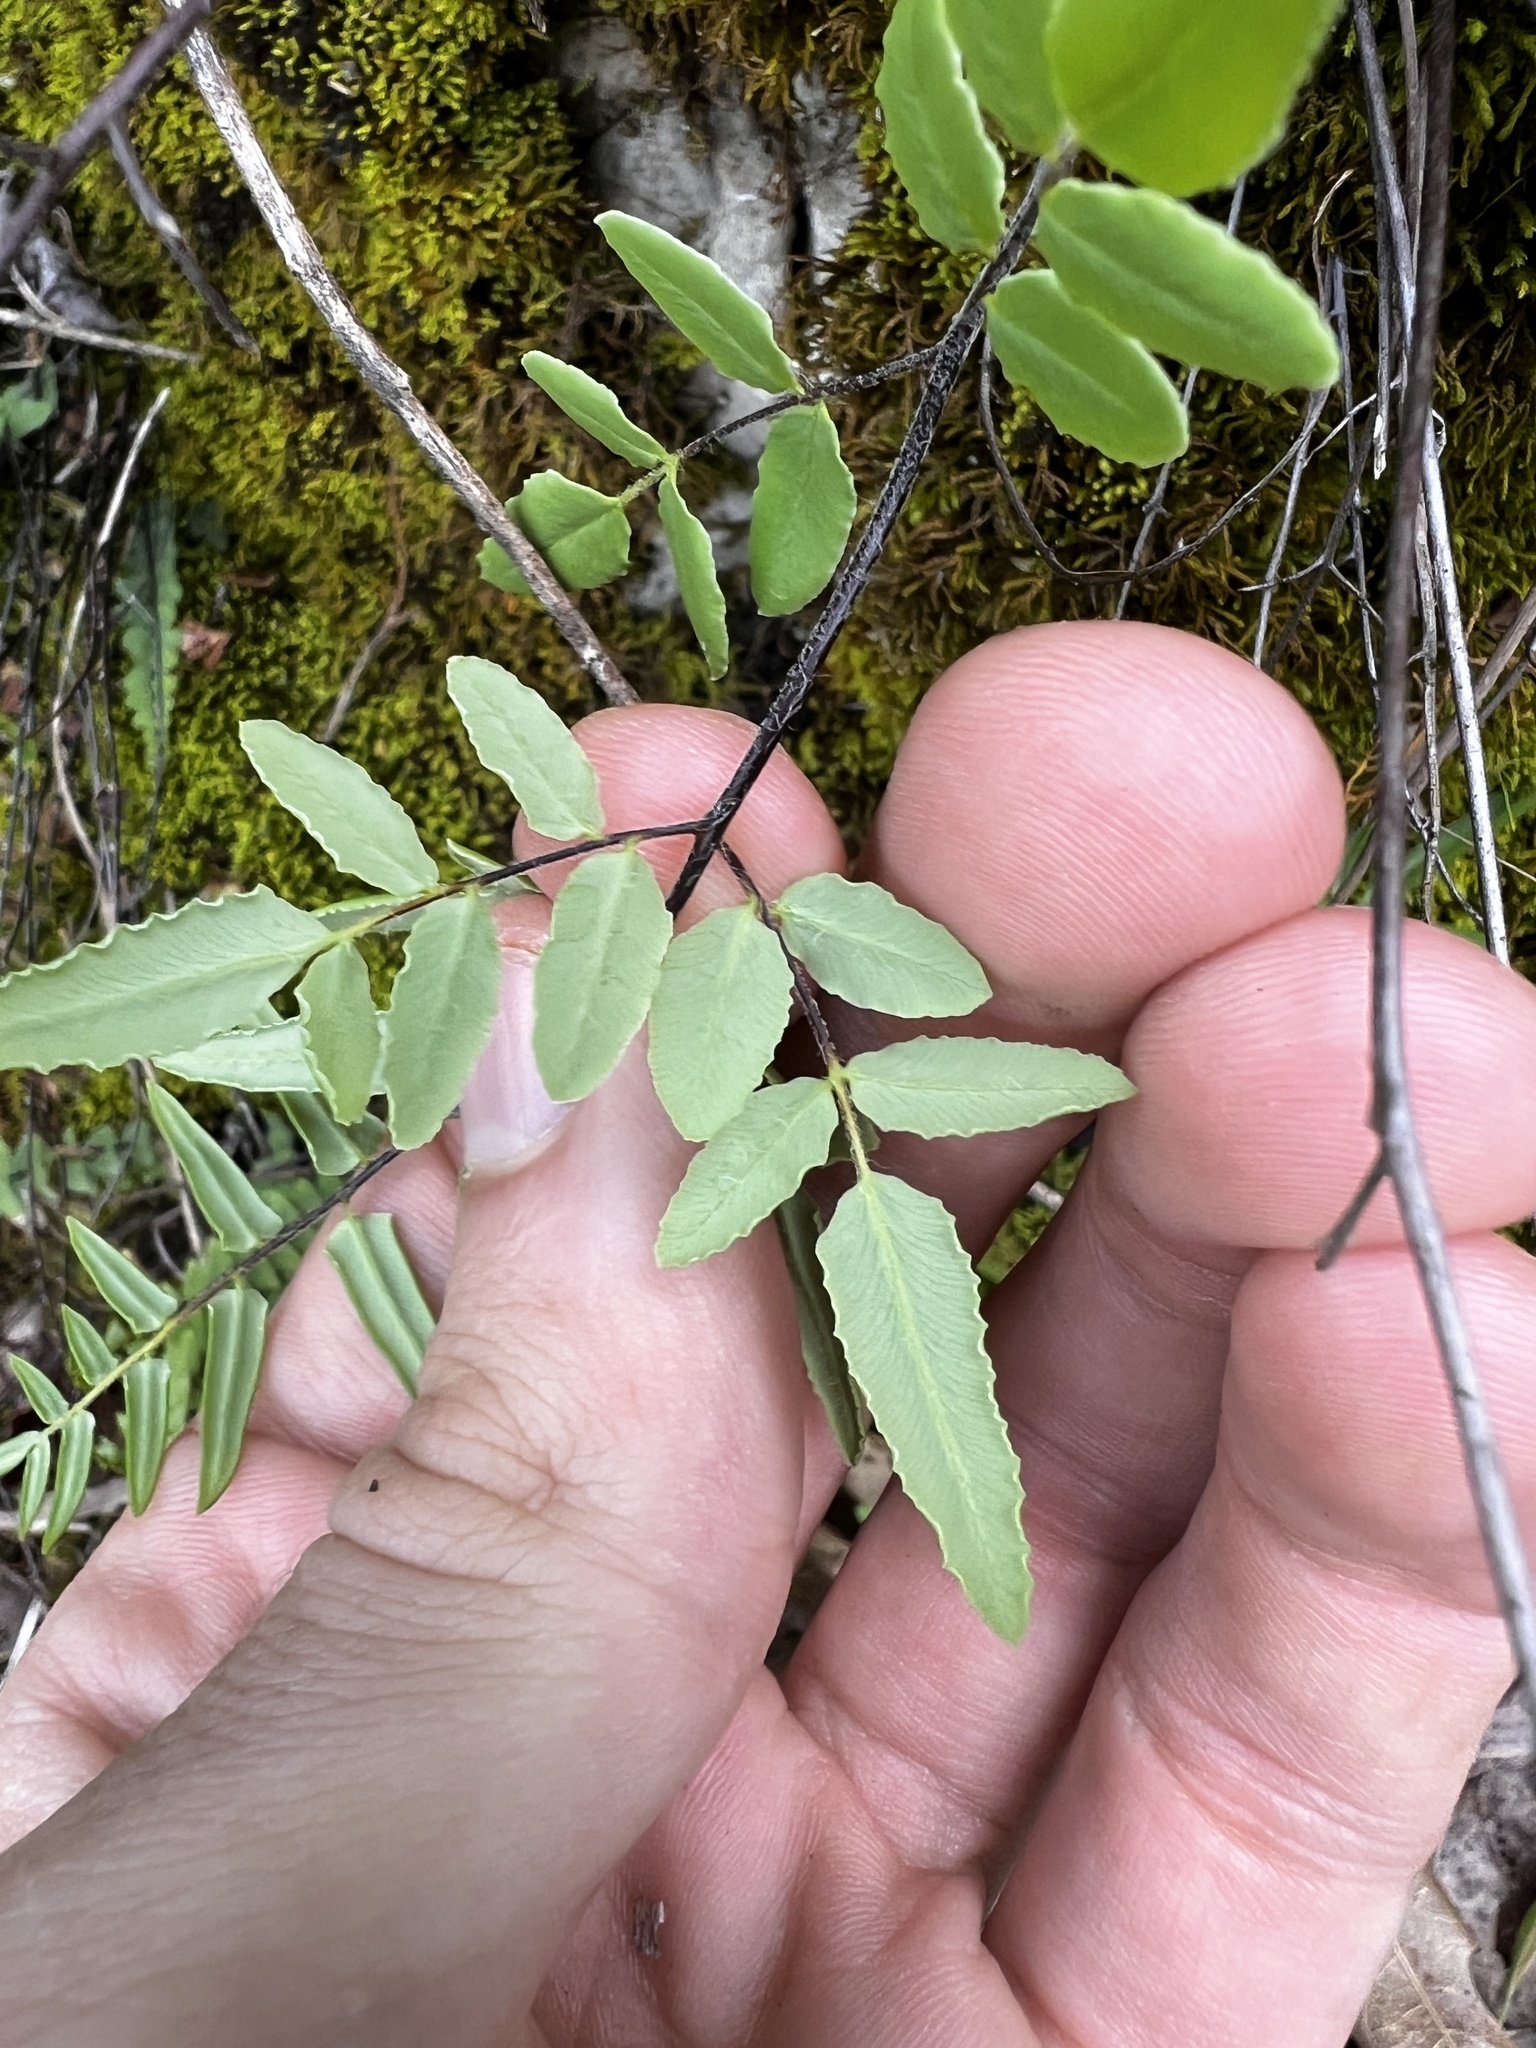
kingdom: Plantae
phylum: Tracheophyta
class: Polypodiopsida
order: Polypodiales
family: Pteridaceae
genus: Pellaea
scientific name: Pellaea atropurpurea
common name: Hairy cliffbrake
